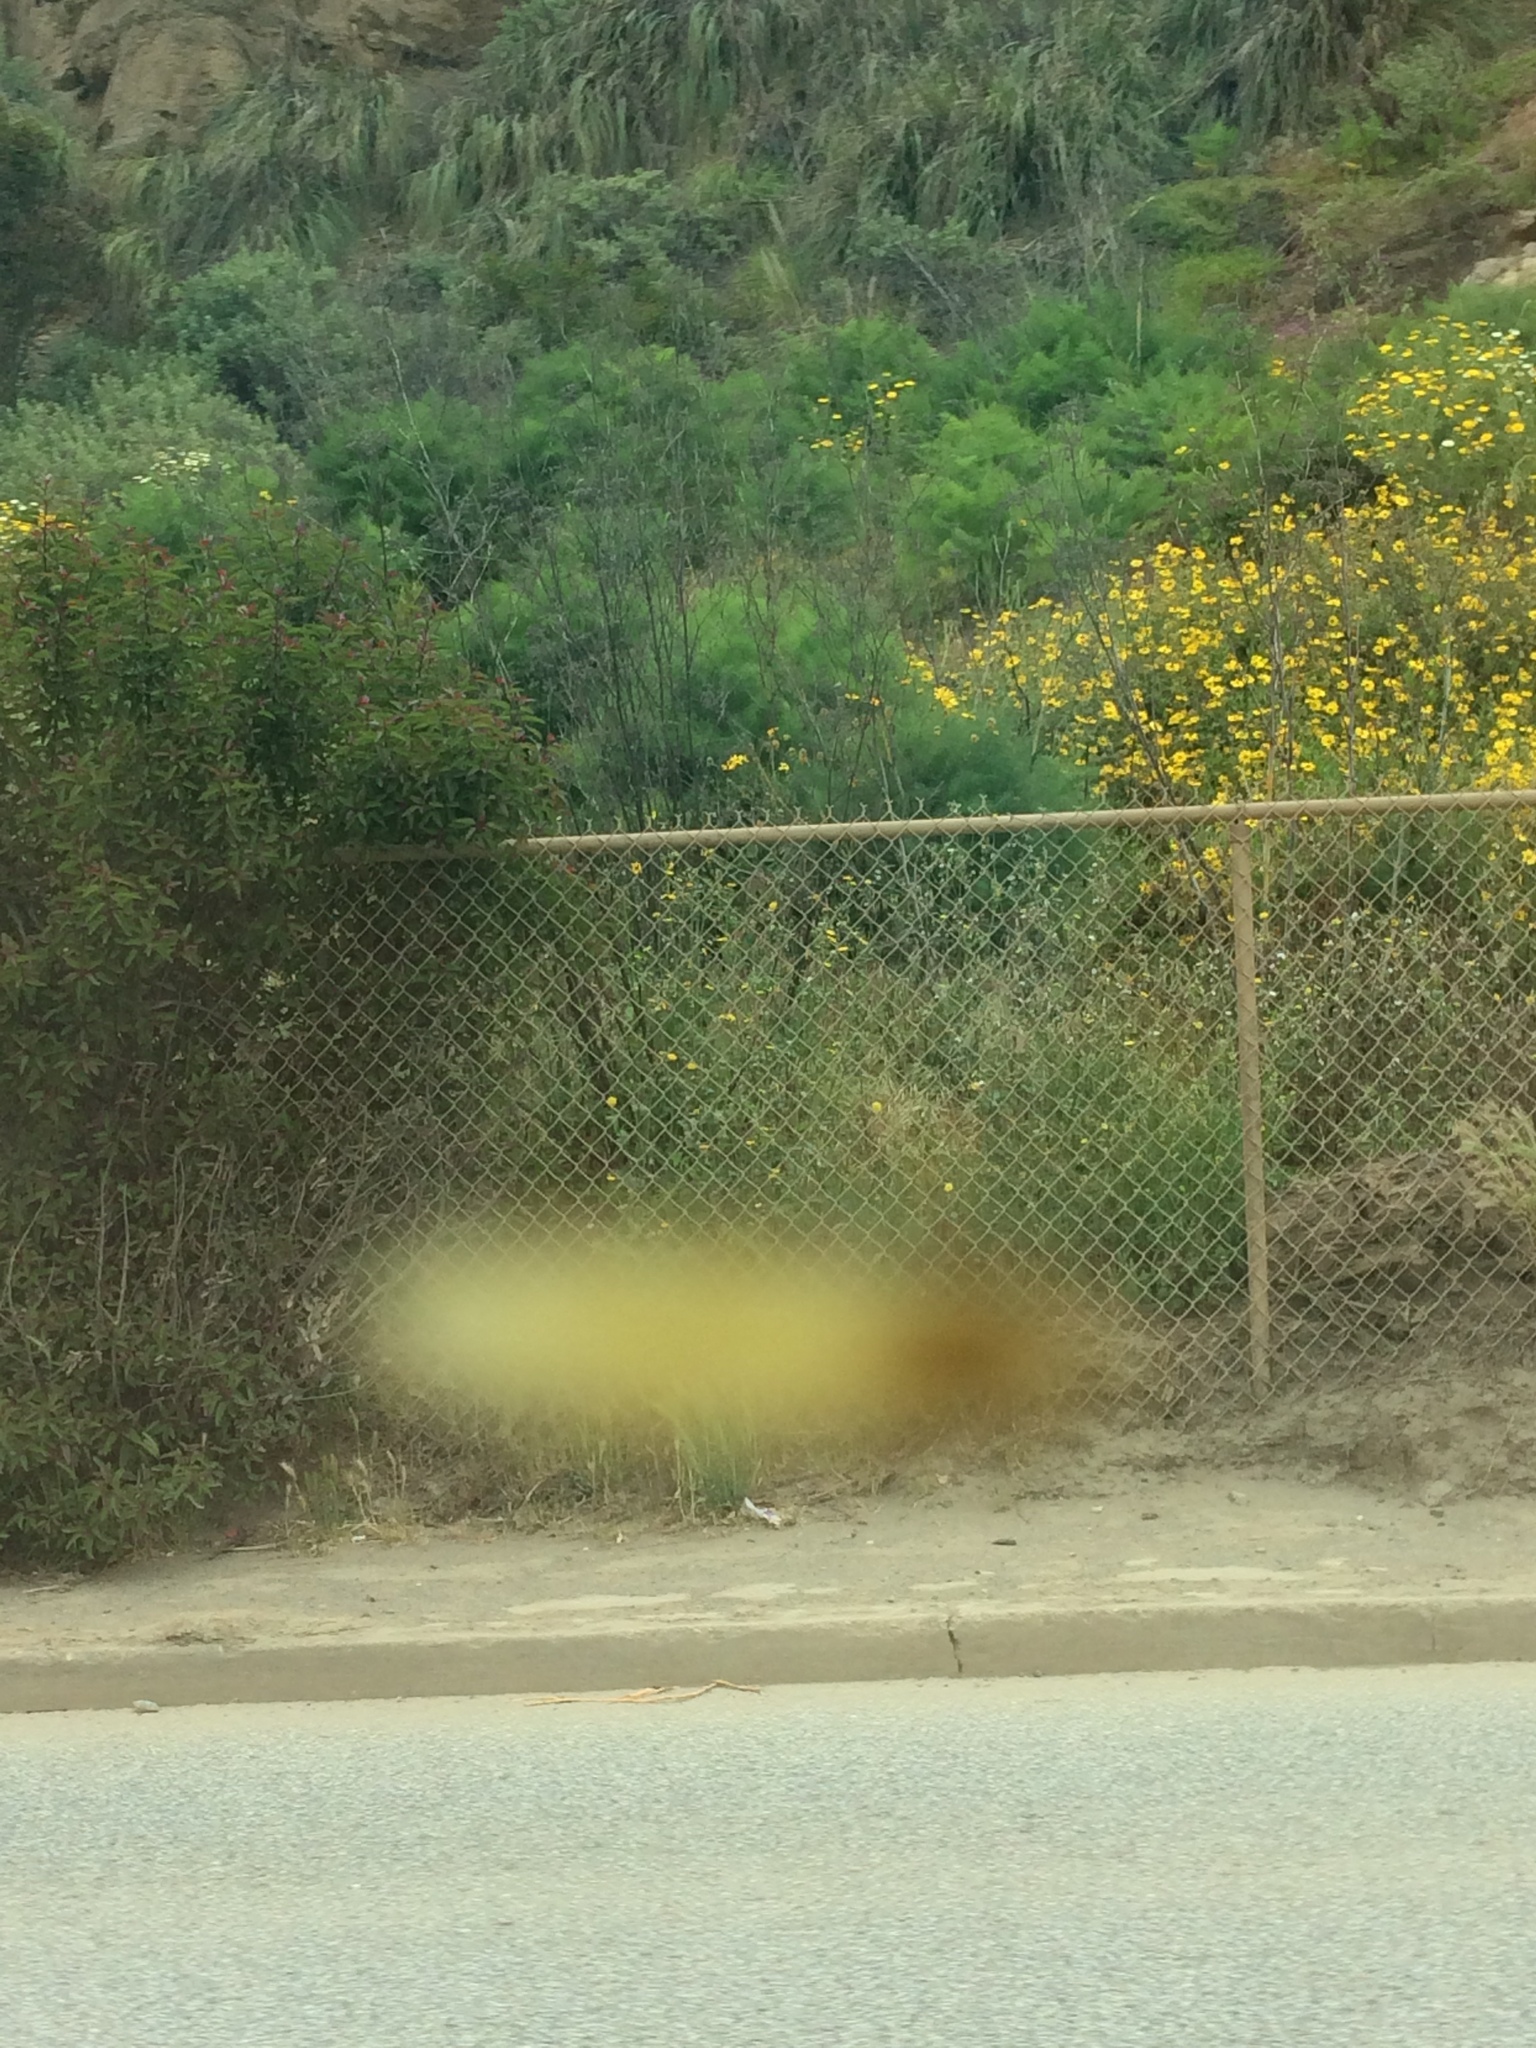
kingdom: Plantae
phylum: Tracheophyta
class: Magnoliopsida
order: Sapindales
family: Anacardiaceae
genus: Malosma
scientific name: Malosma laurina
